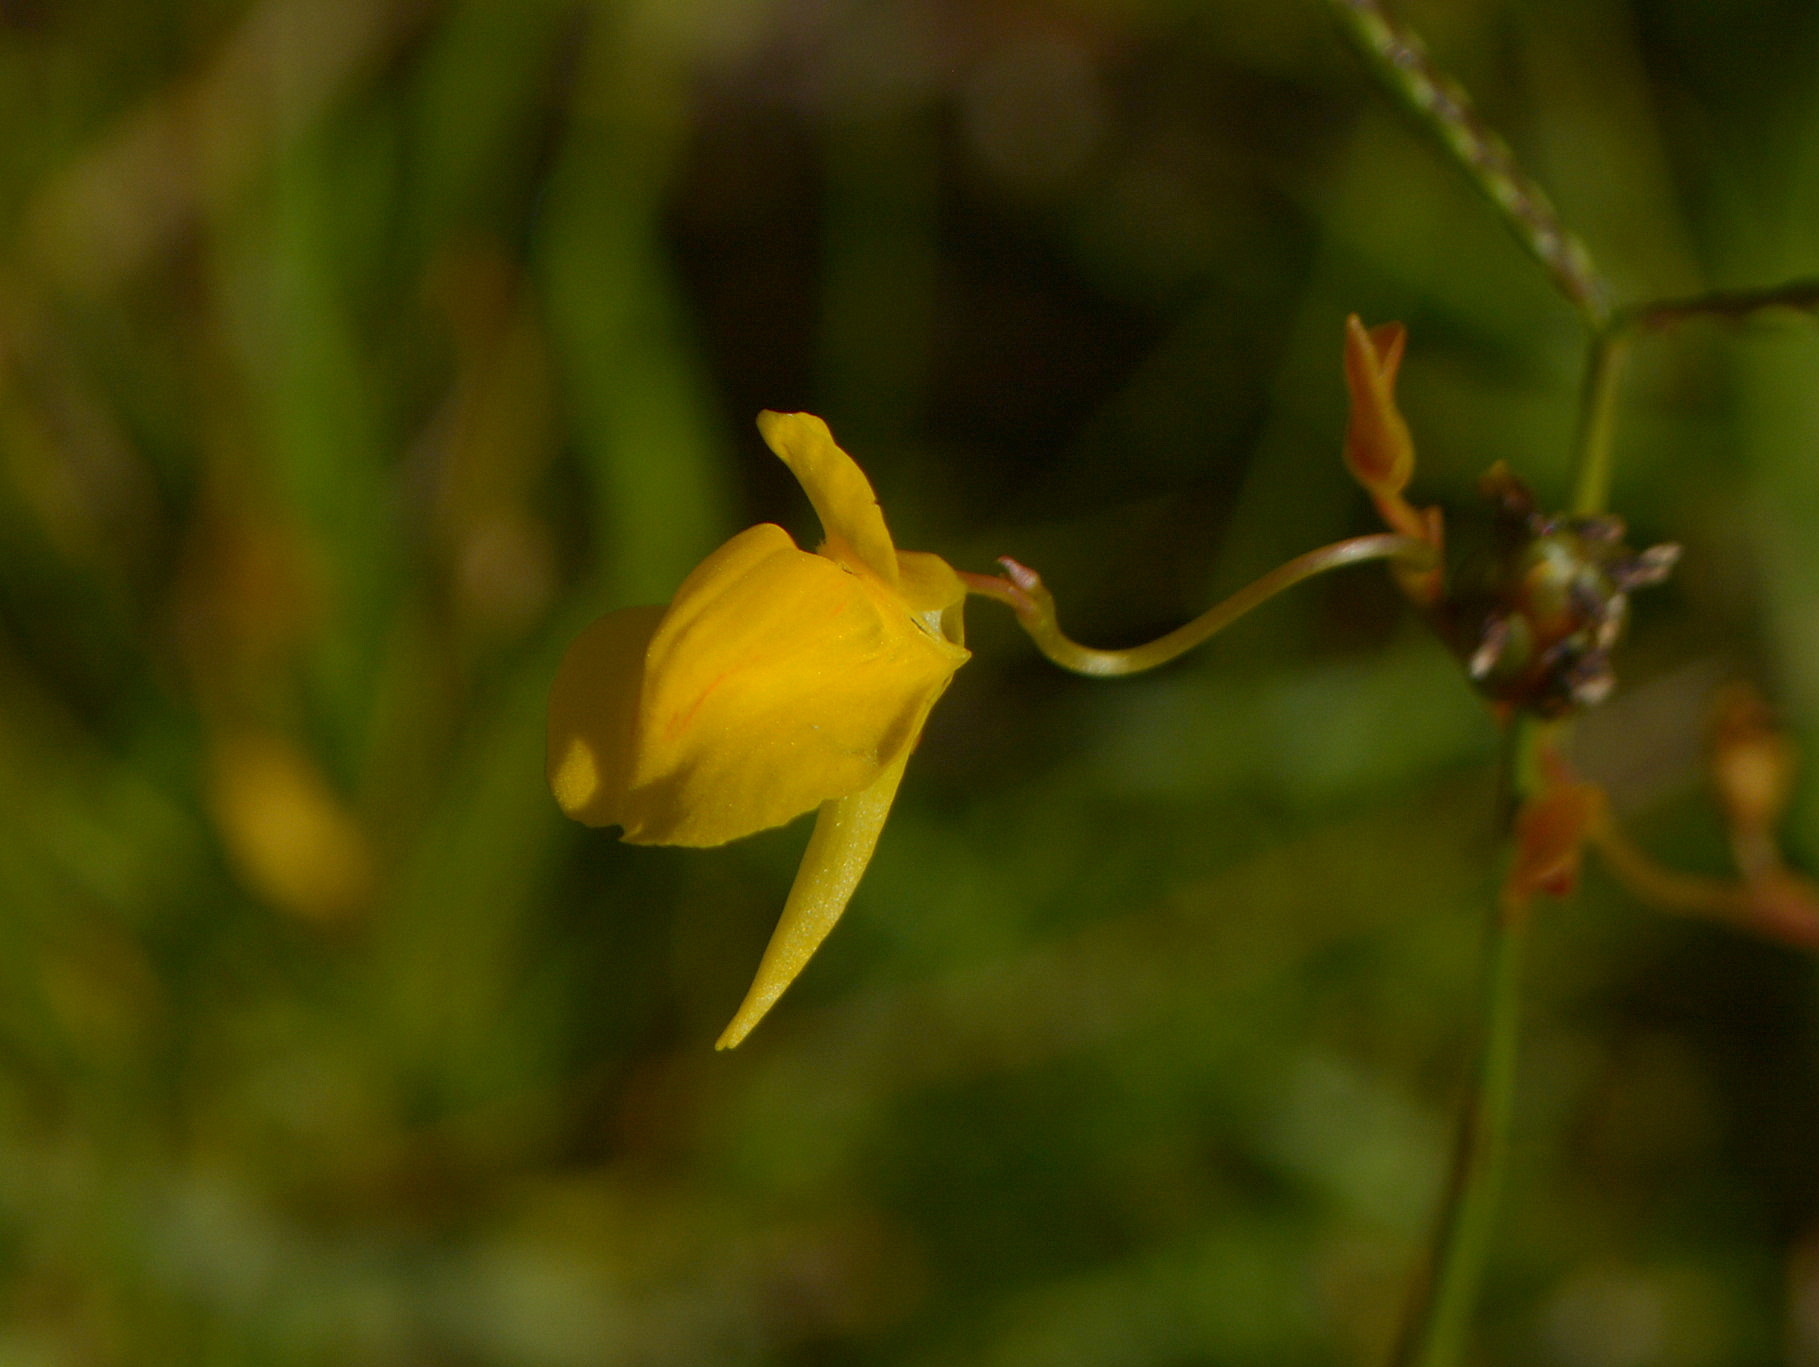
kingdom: Plantae
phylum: Tracheophyta
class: Magnoliopsida
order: Lamiales
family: Lentibulariaceae
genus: Utricularia
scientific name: Utricularia laxa
